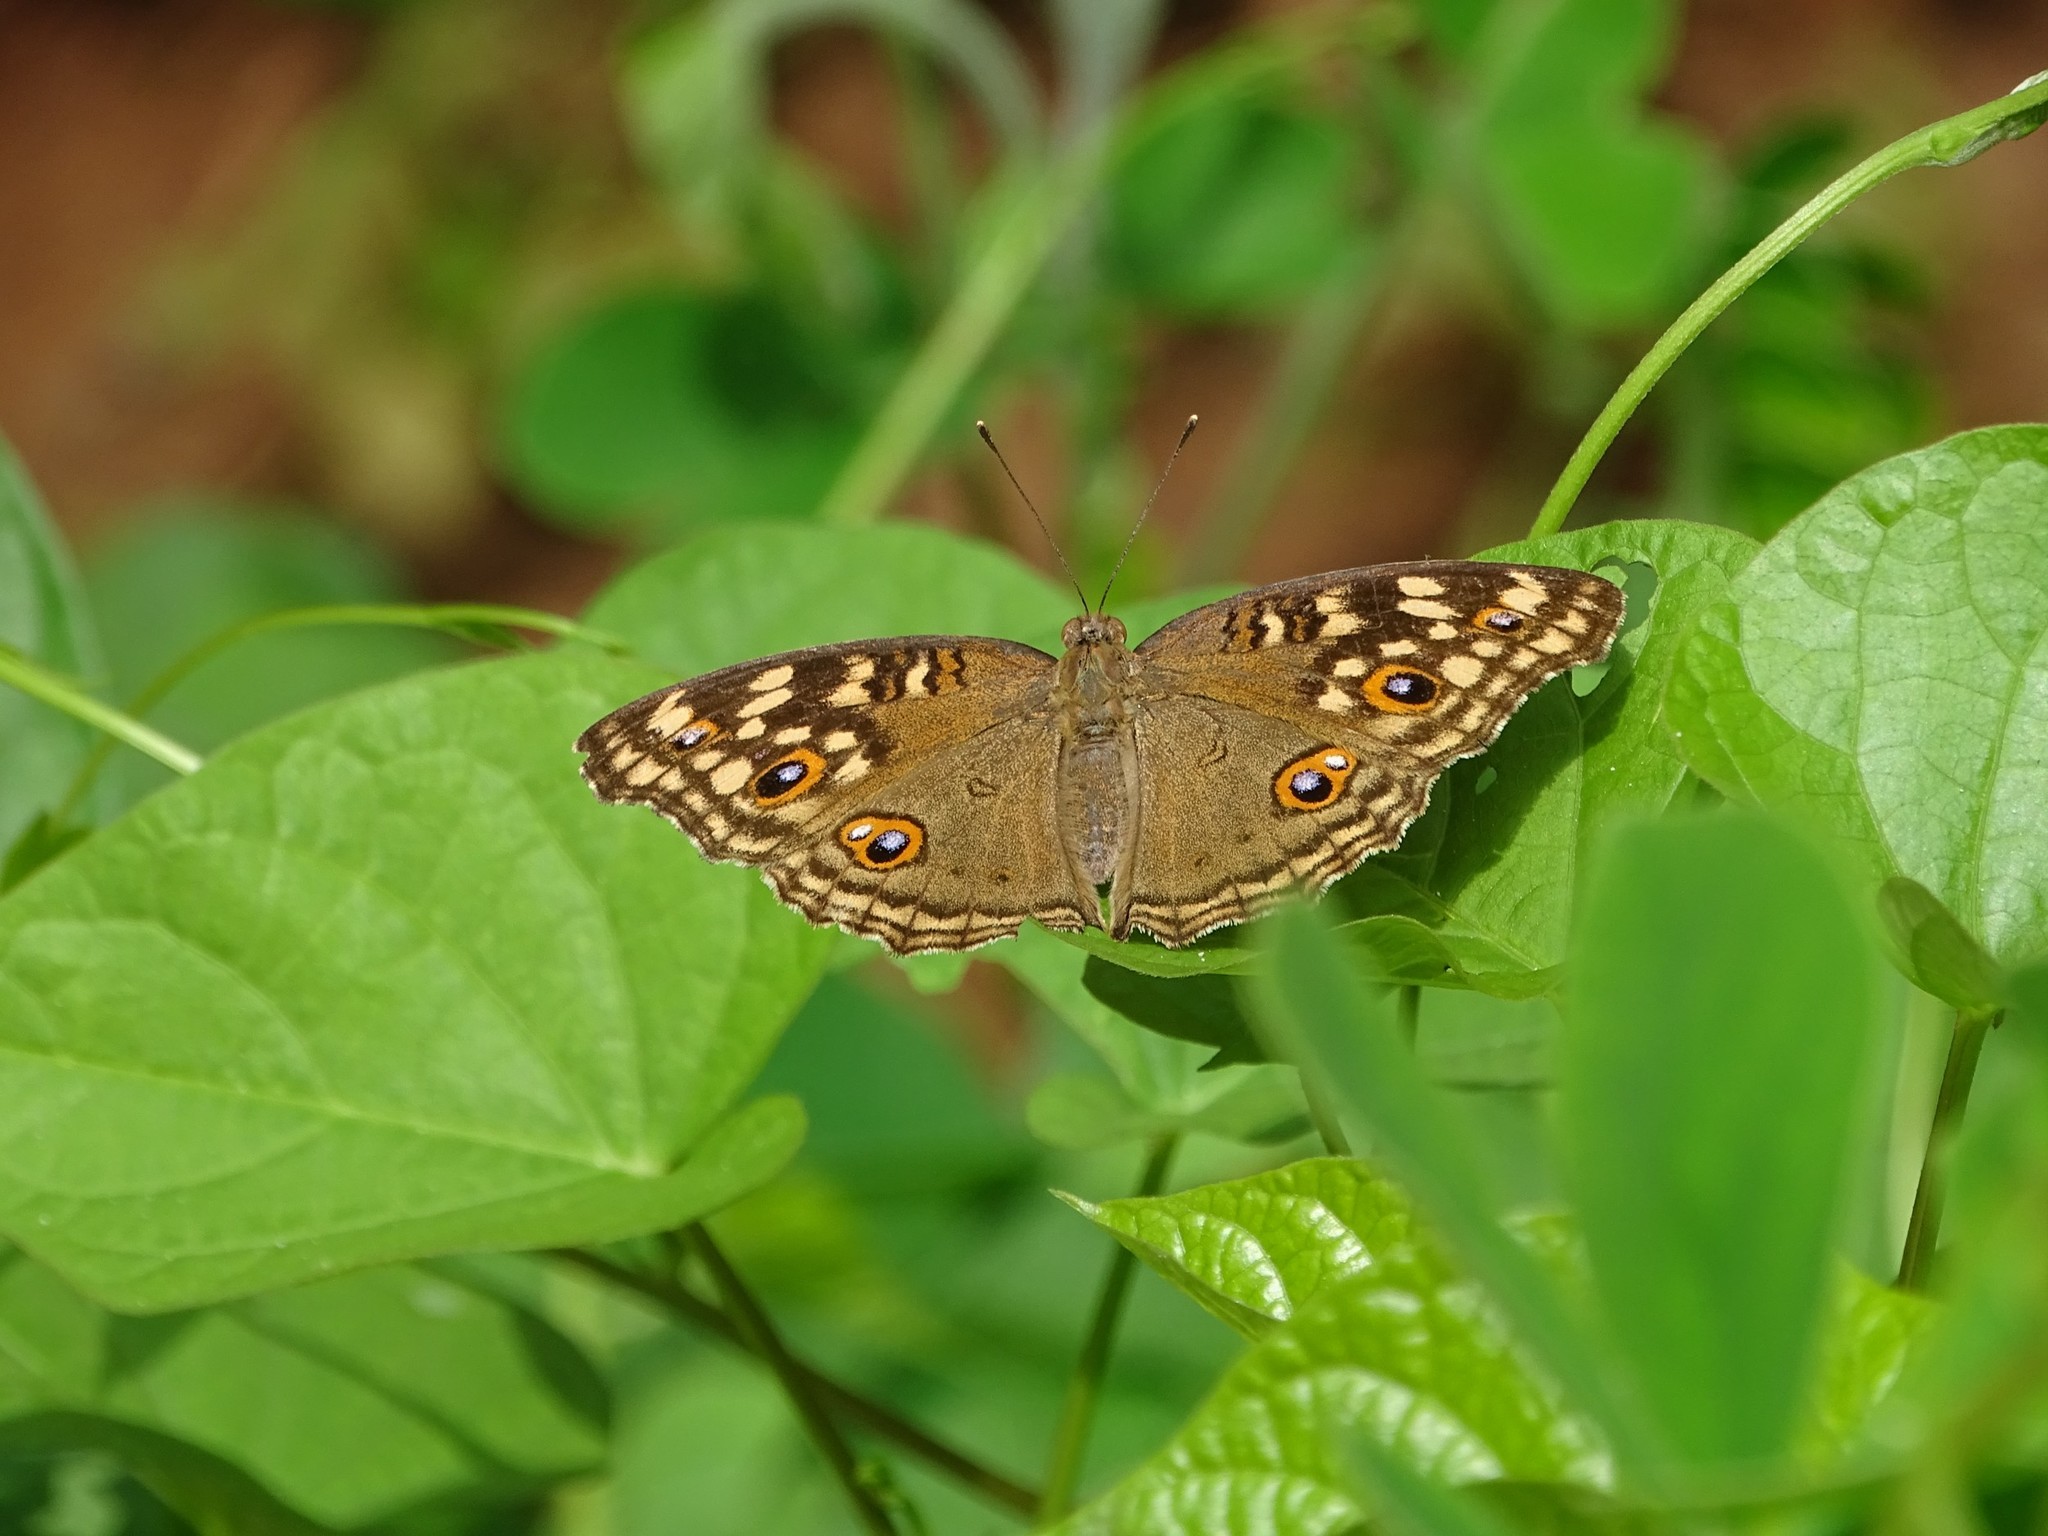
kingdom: Animalia
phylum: Arthropoda
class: Insecta
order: Lepidoptera
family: Nymphalidae
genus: Junonia
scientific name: Junonia lemonias
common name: Lemon pansy
